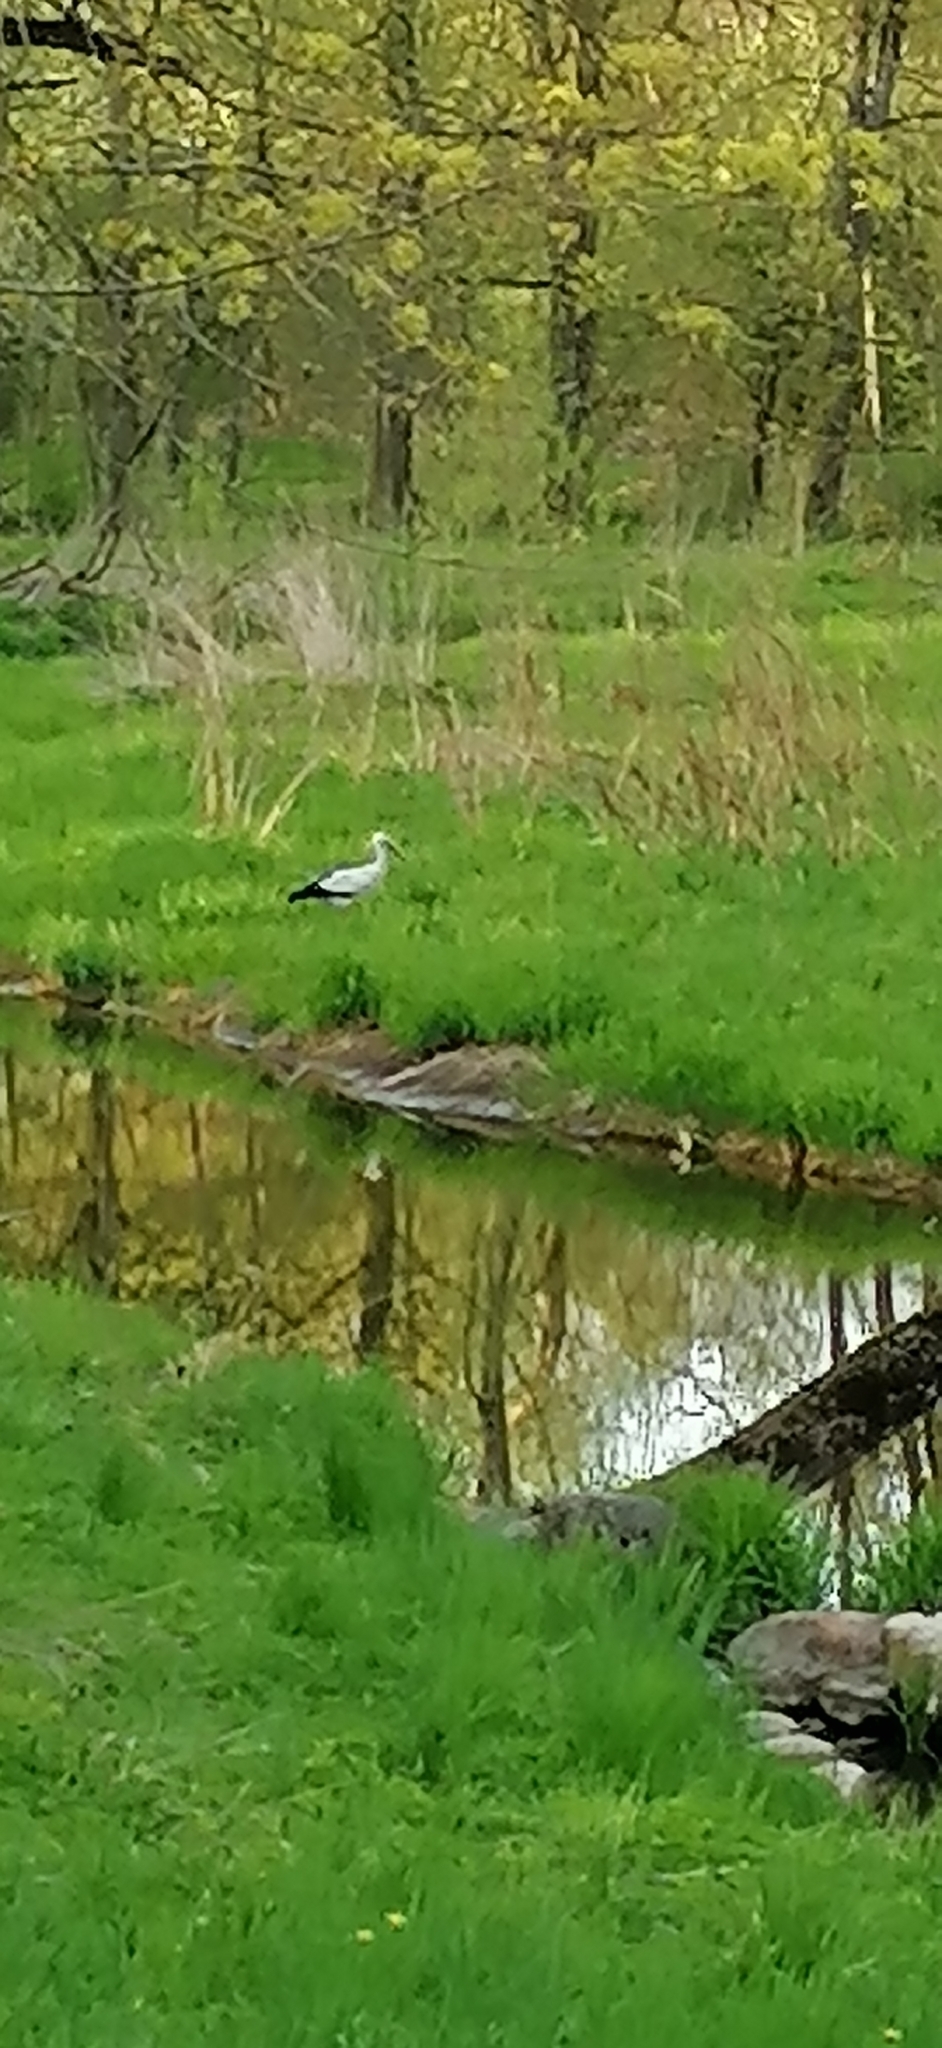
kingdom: Animalia
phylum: Chordata
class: Aves
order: Ciconiiformes
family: Ciconiidae
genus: Ciconia
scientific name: Ciconia ciconia
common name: White stork
